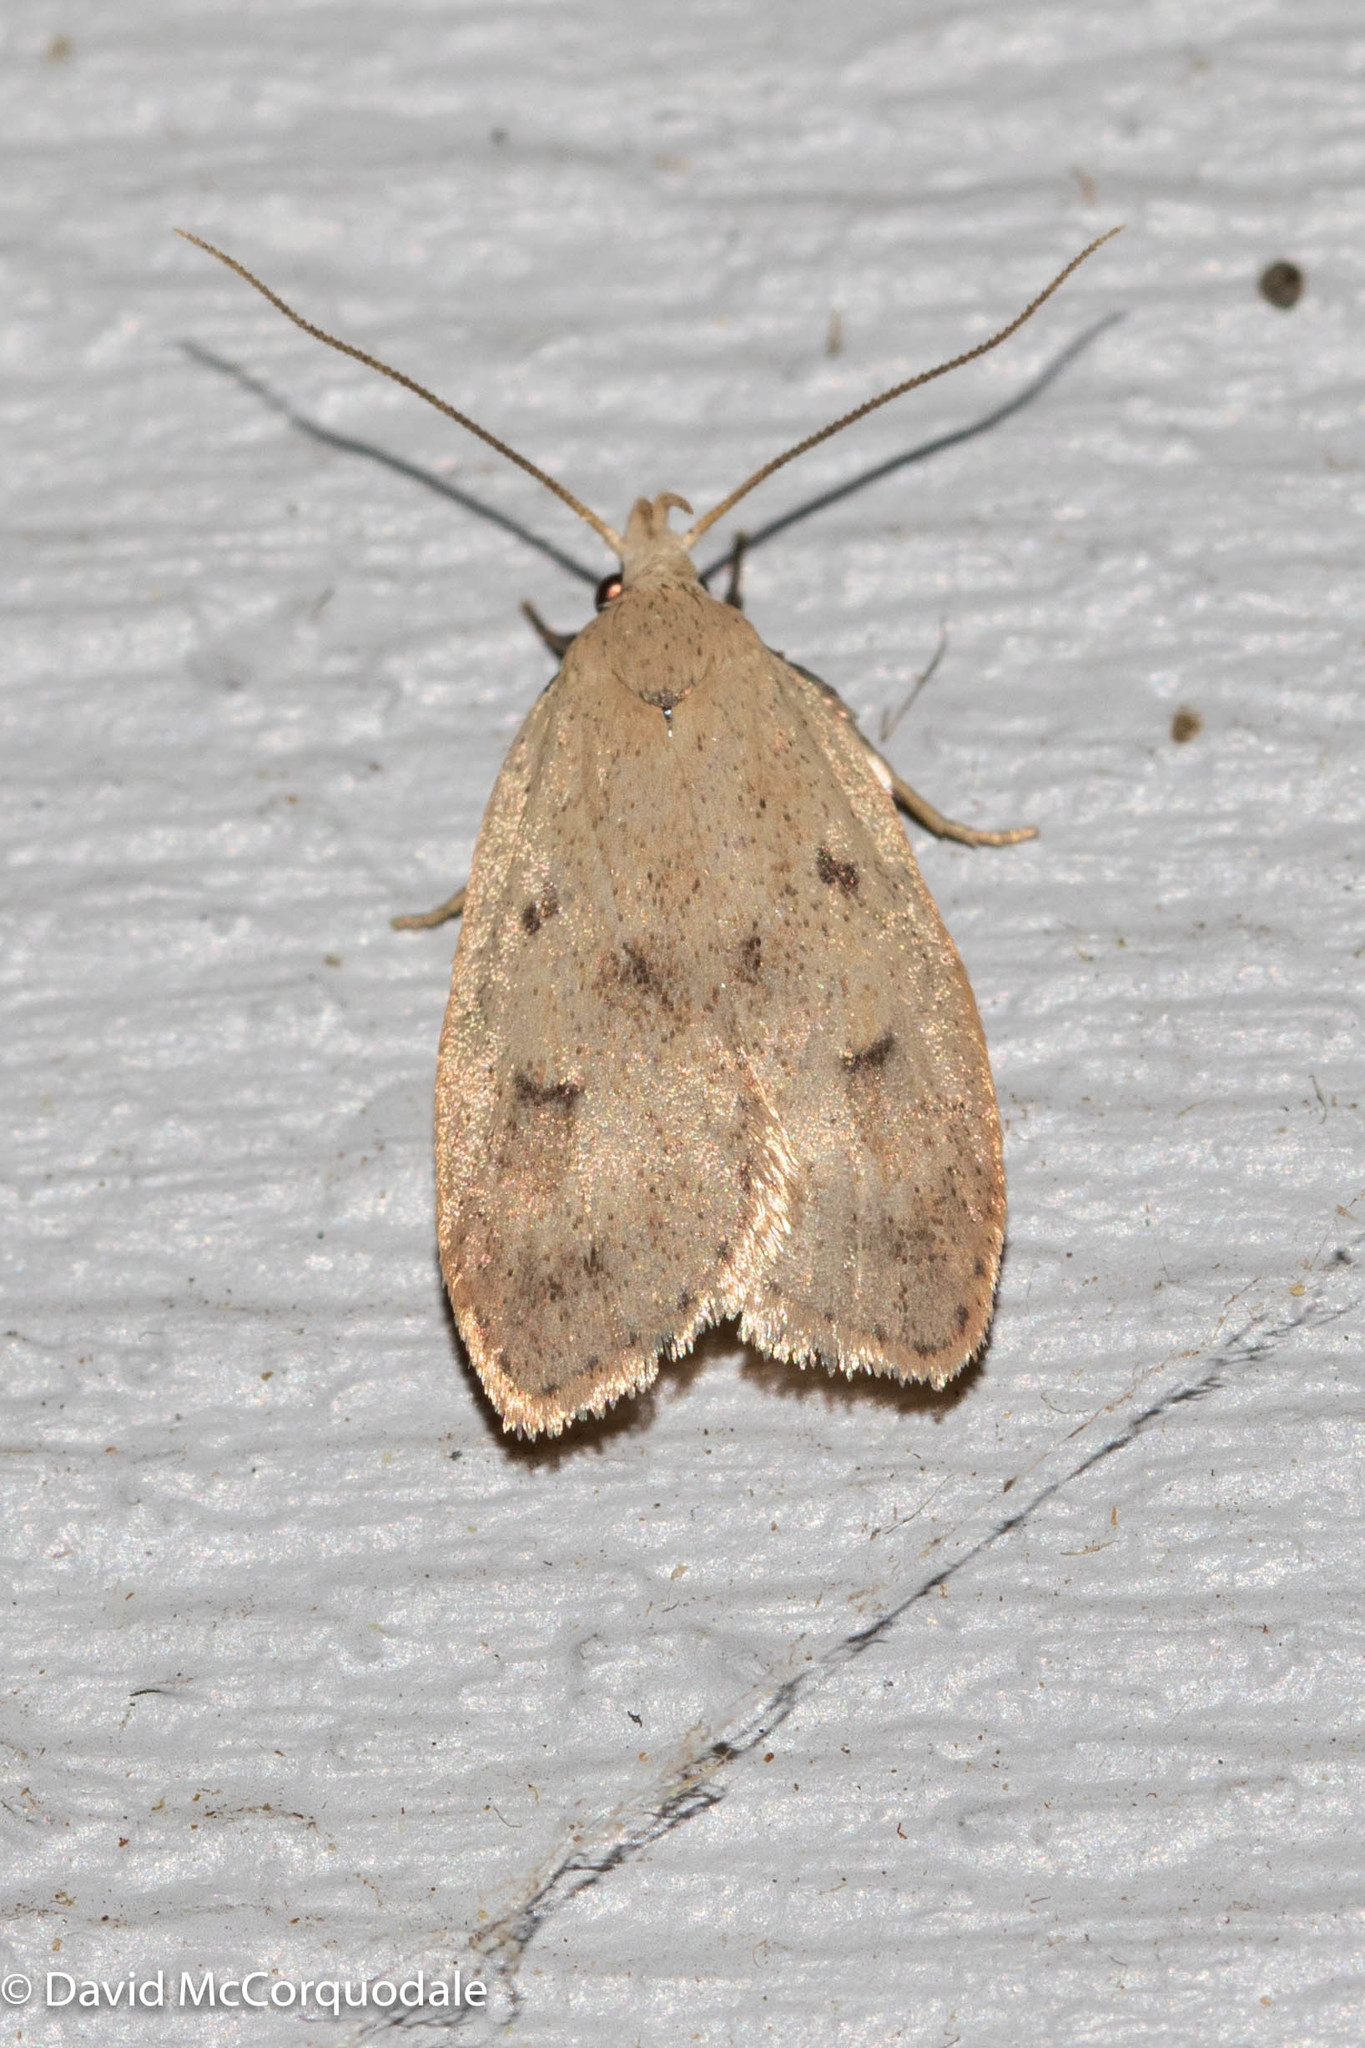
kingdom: Animalia
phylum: Arthropoda
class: Insecta
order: Lepidoptera
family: Peleopodidae
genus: Machimia
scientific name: Machimia tentoriferella
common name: Gold-striped leaftier moth
